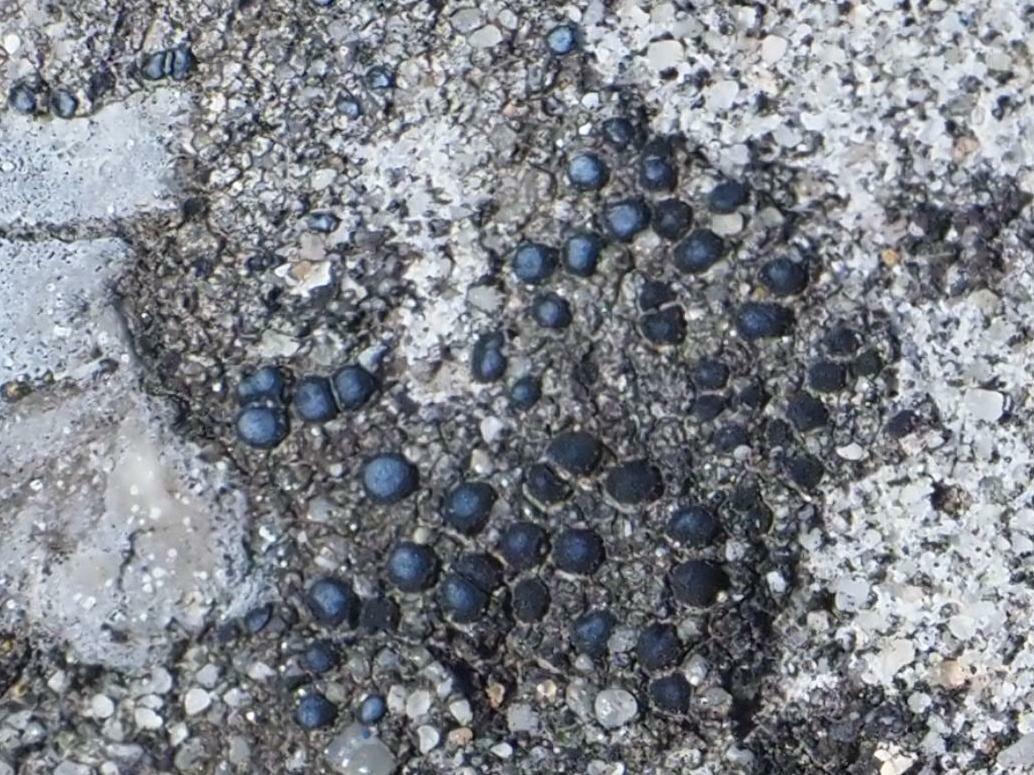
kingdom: Fungi
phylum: Ascomycota
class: Lecanoromycetes
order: Acarosporales
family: Acarosporaceae
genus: Sarcogyne
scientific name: Sarcogyne regularis
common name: Frosted grain-spored lichen
